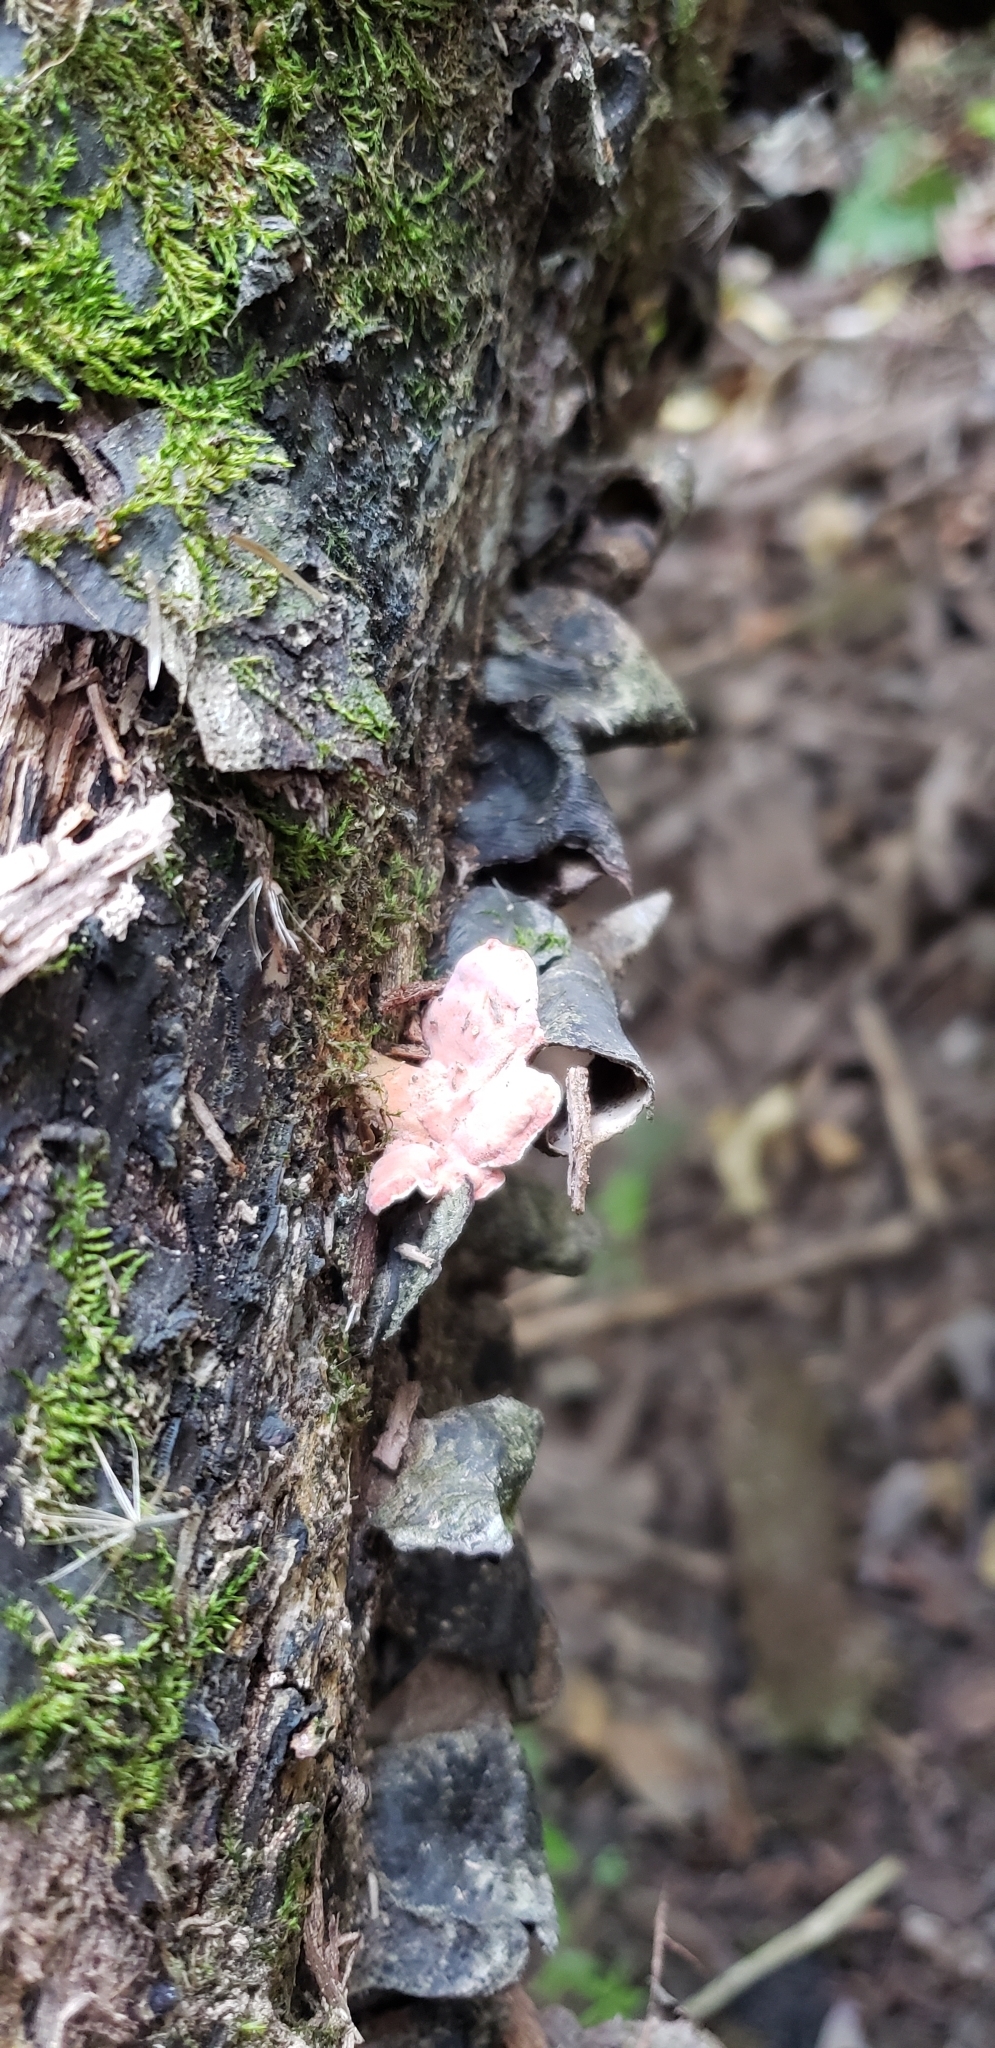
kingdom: Fungi
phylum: Basidiomycota
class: Agaricomycetes
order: Polyporales
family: Irpicaceae
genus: Byssomerulius
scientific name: Byssomerulius incarnatus
